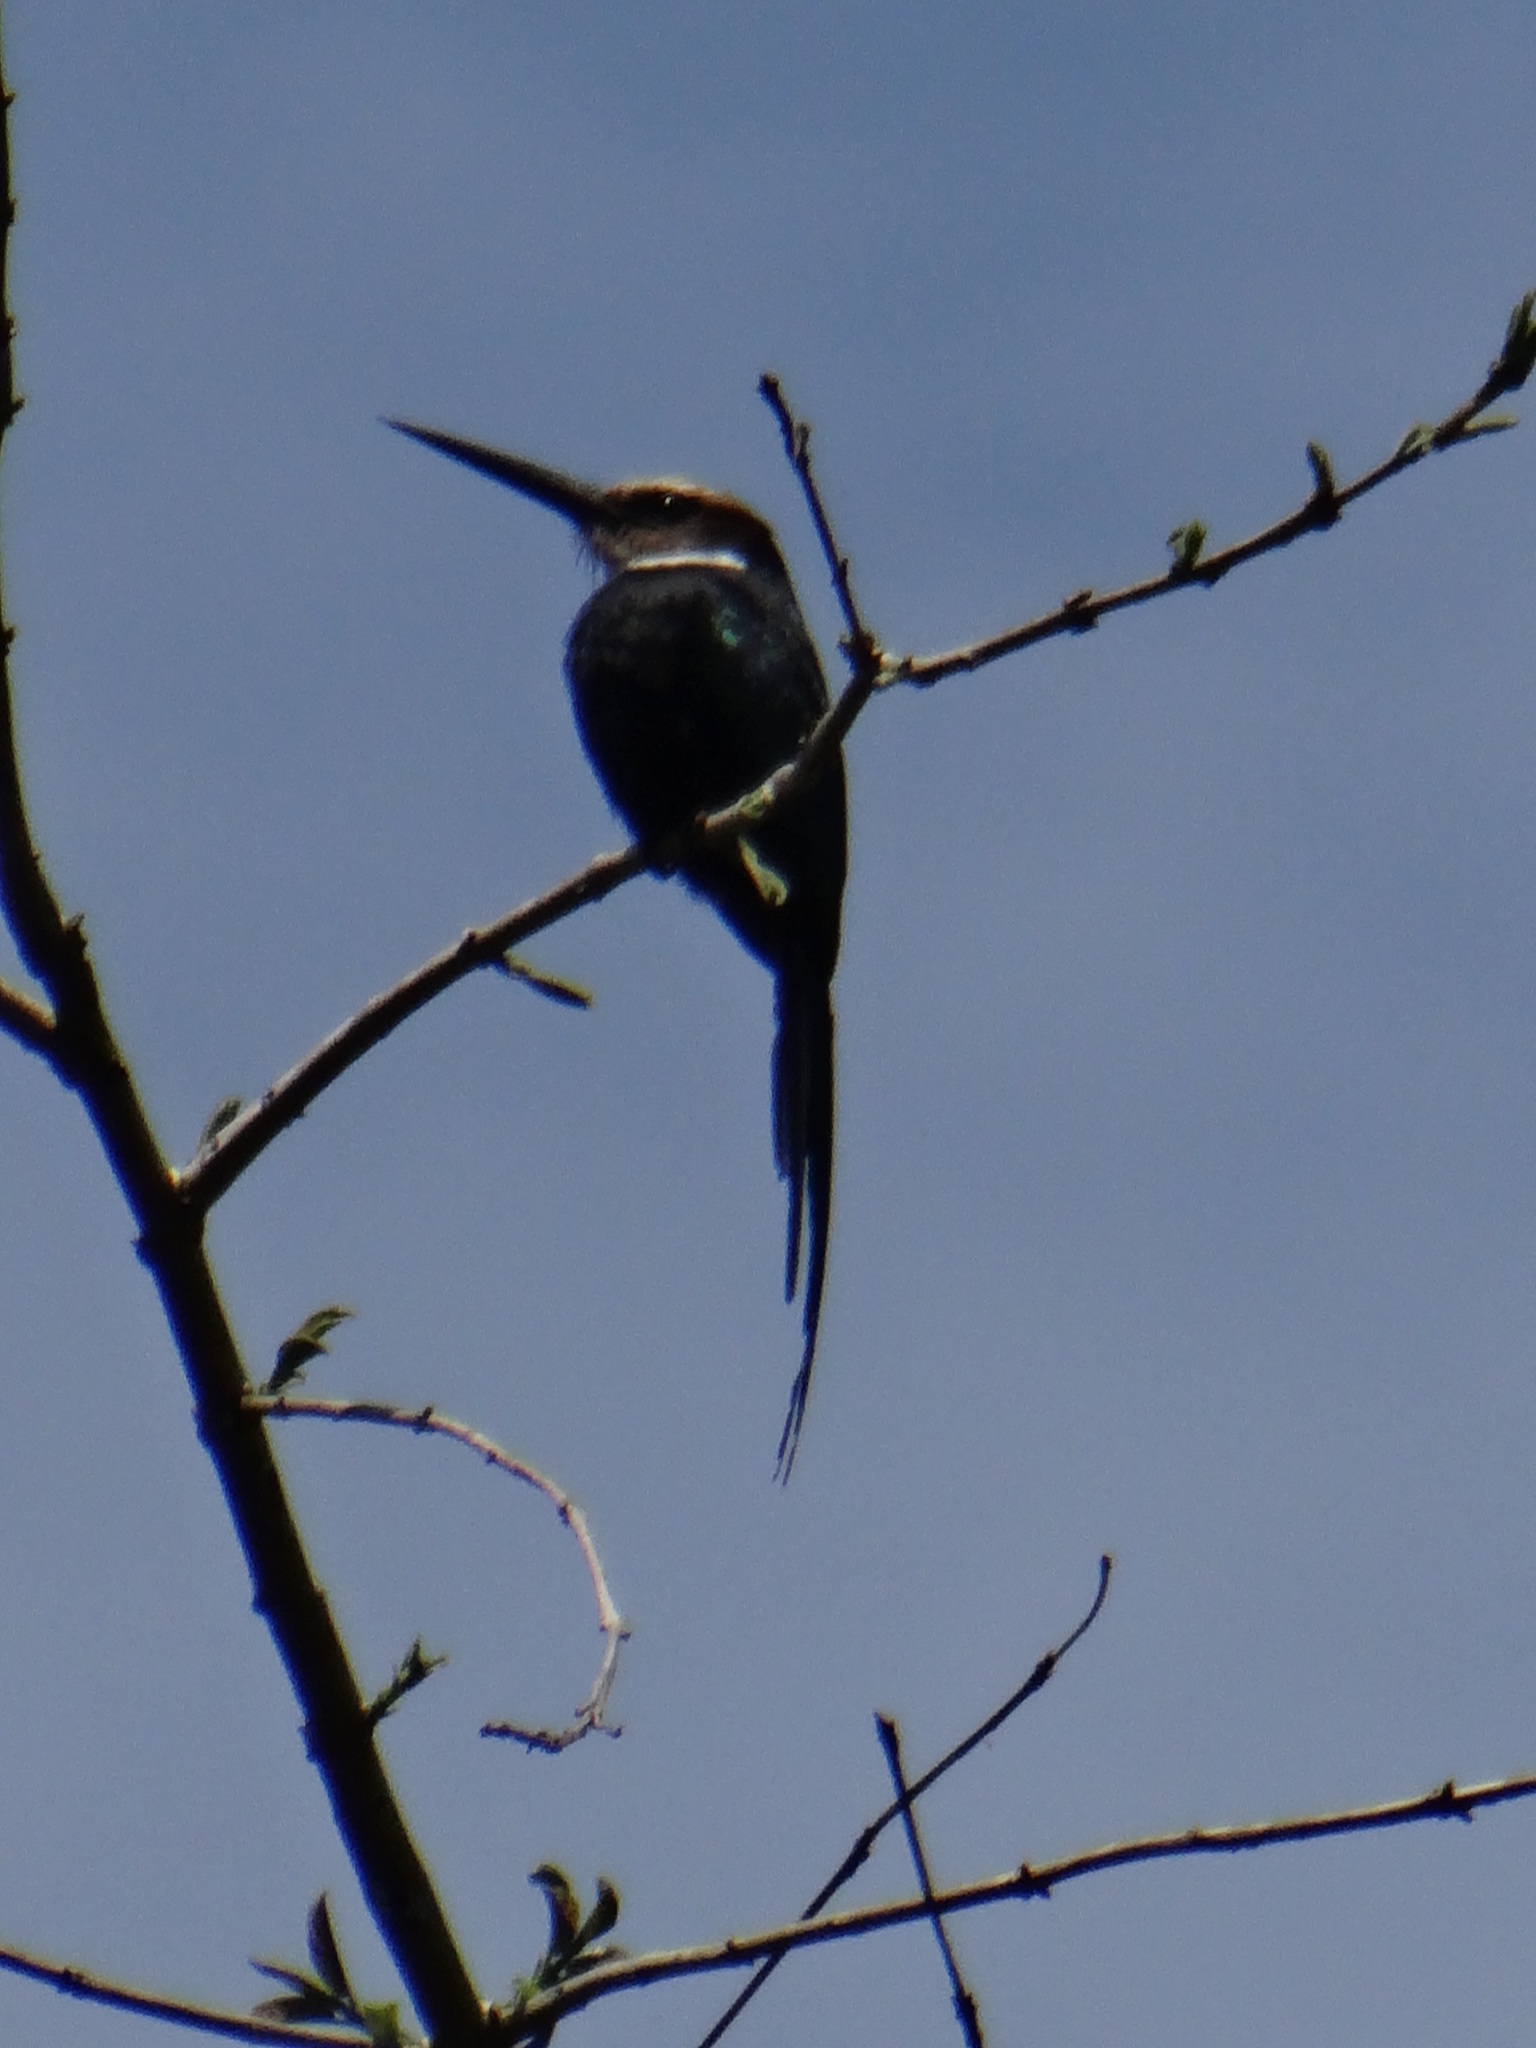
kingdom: Animalia
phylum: Chordata
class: Aves
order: Piciformes
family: Galbulidae
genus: Galbula
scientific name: Galbula dea
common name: Paradise jacamar
